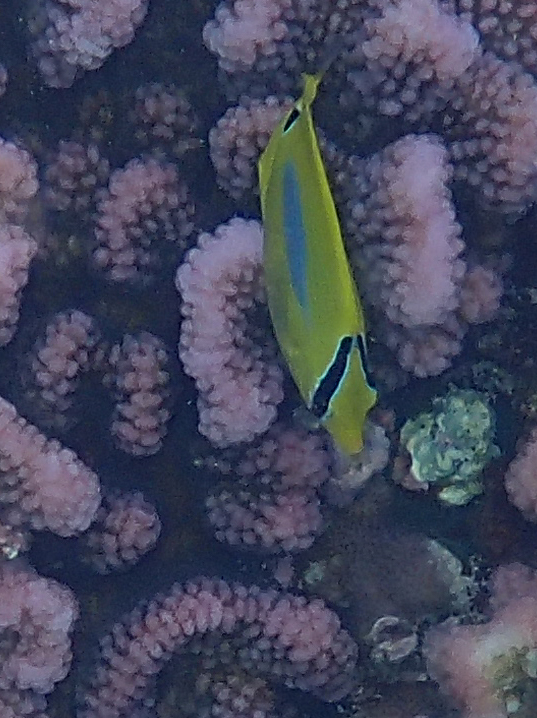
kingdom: Animalia
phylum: Chordata
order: Perciformes
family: Chaetodontidae
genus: Chaetodon
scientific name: Chaetodon plebeius
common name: Bluespot butterflyfish
